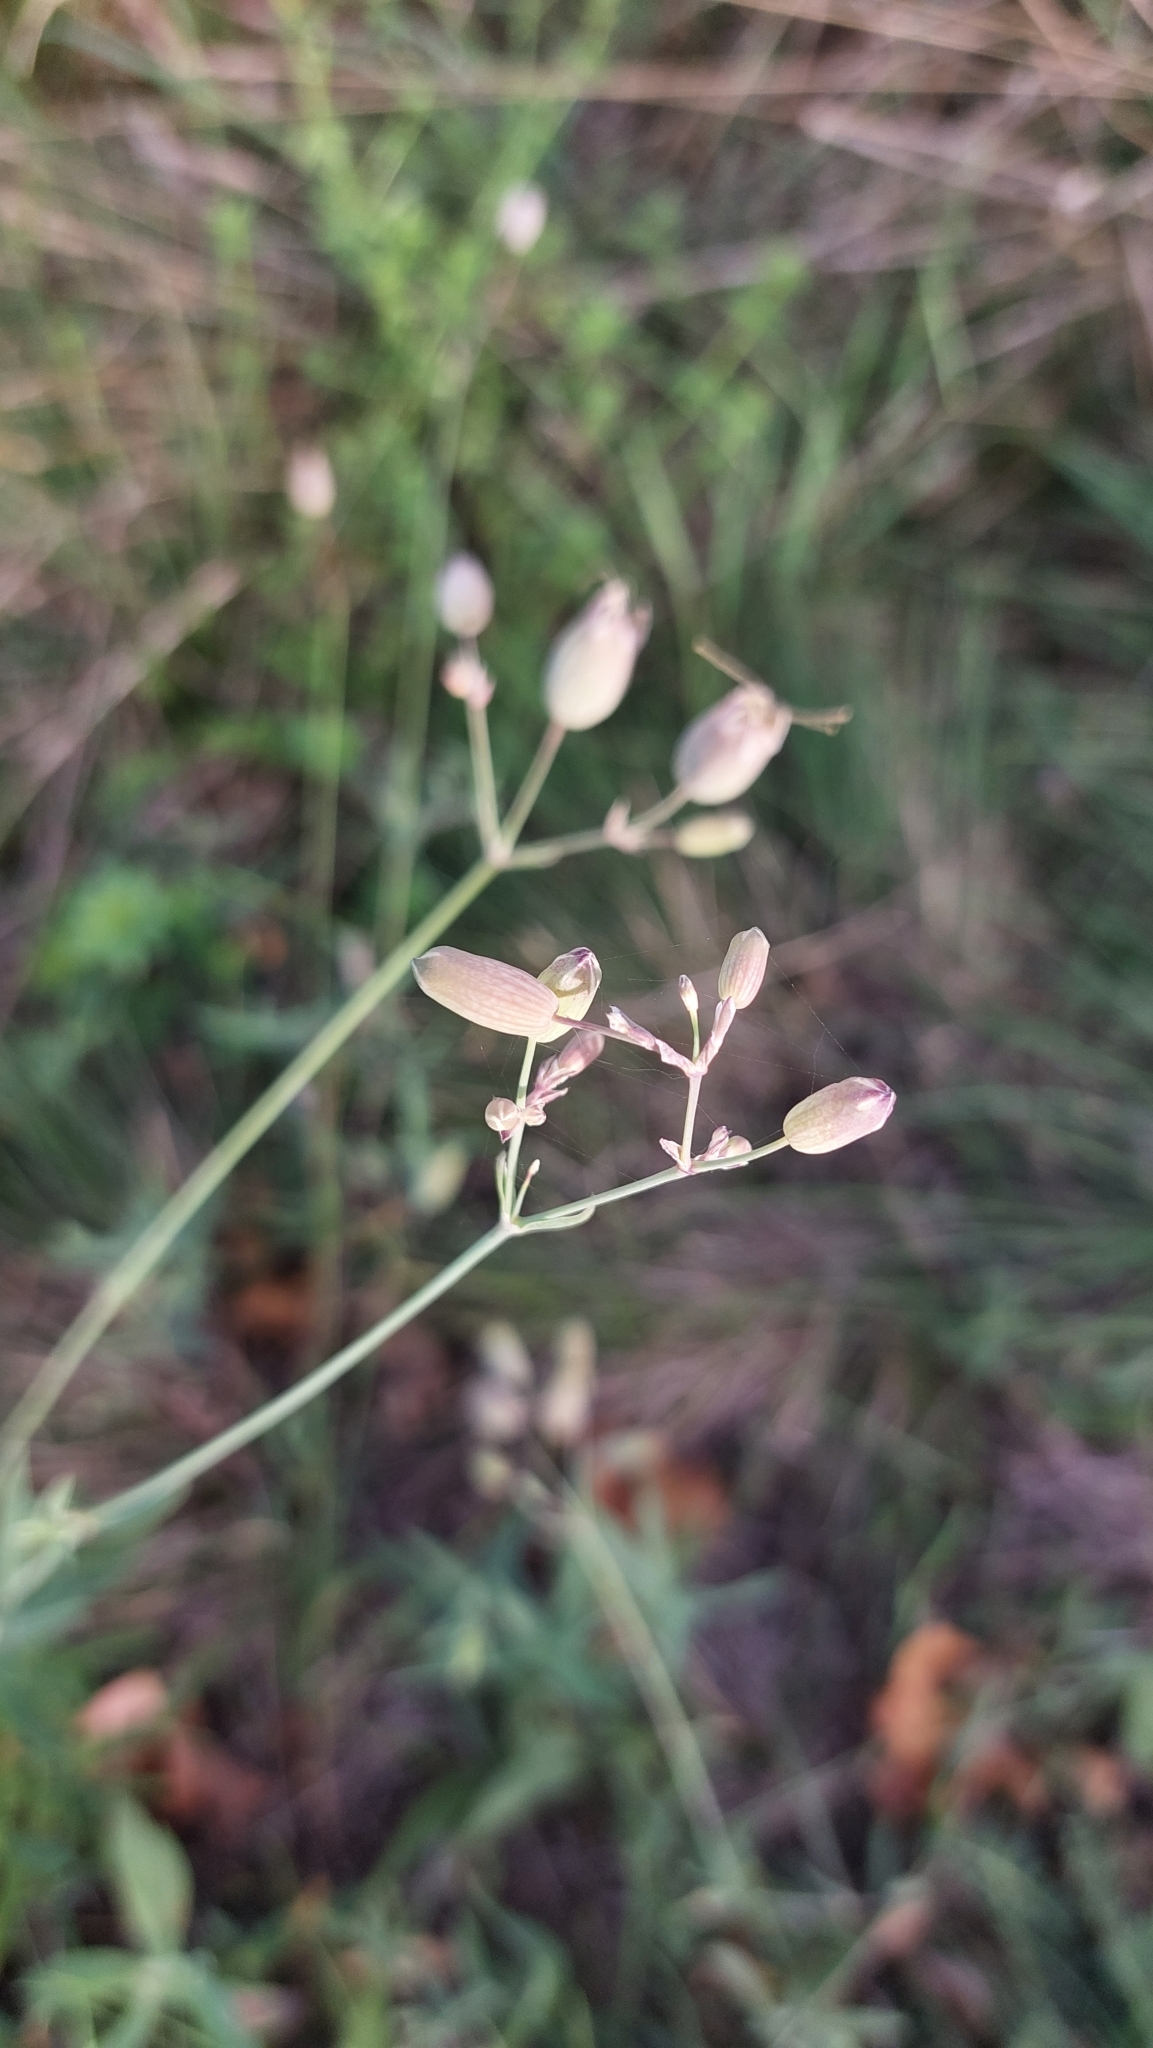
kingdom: Plantae
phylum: Tracheophyta
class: Magnoliopsida
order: Caryophyllales
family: Caryophyllaceae
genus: Silene
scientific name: Silene vulgaris
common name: Bladder campion
